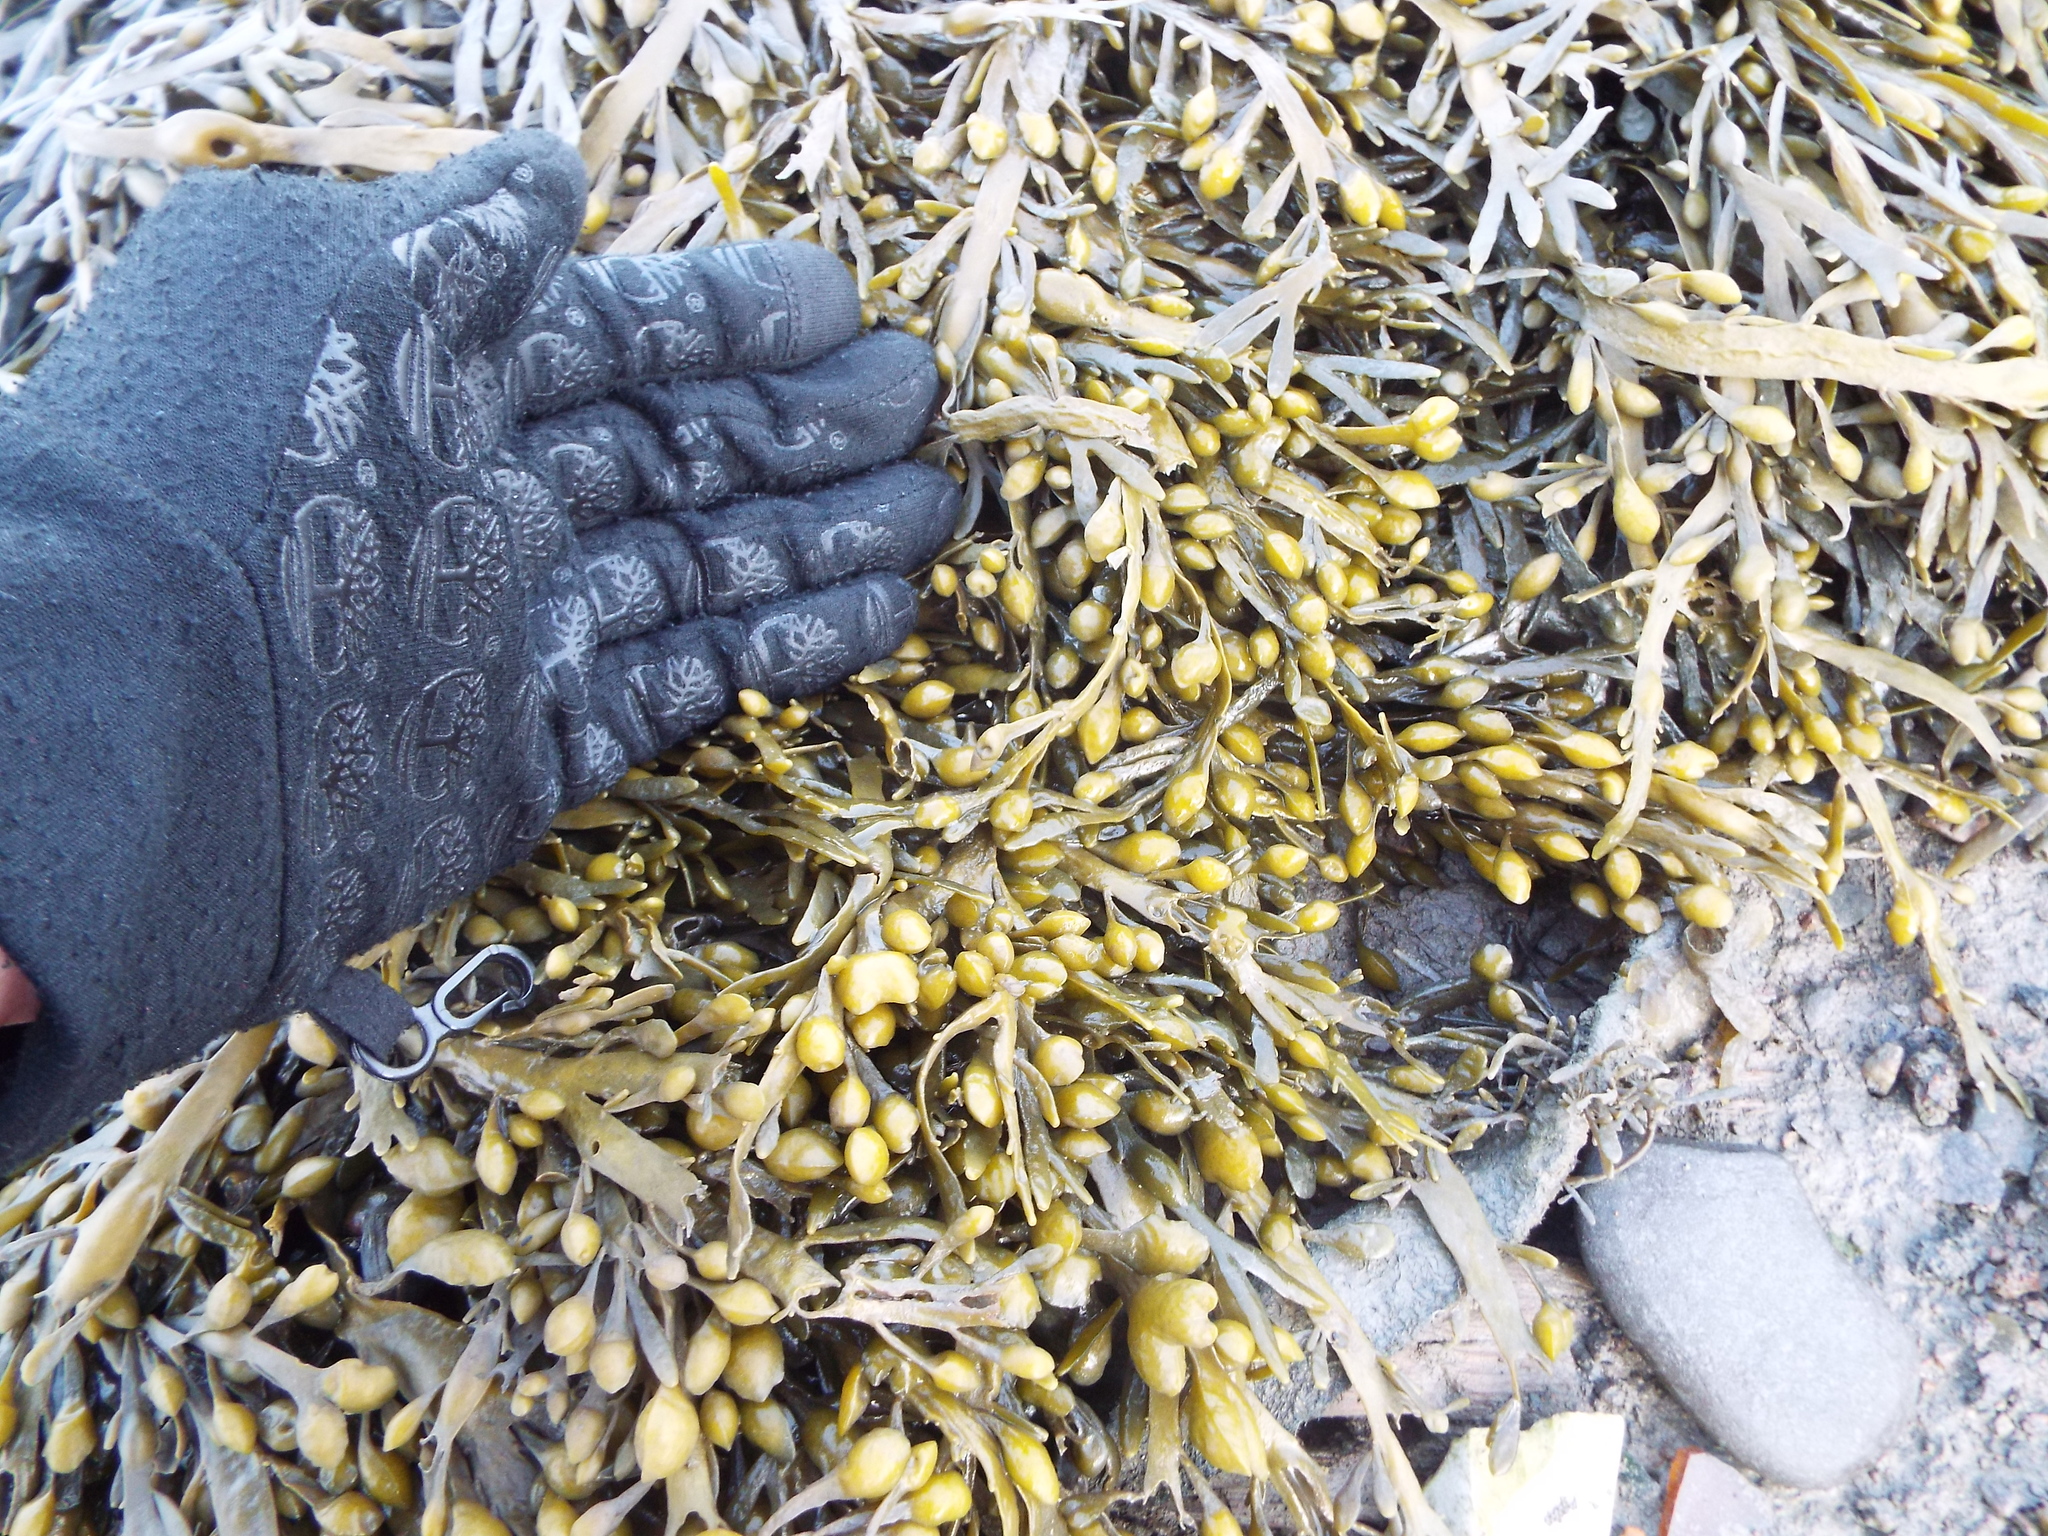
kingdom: Chromista
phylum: Ochrophyta
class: Phaeophyceae
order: Fucales
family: Fucaceae
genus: Ascophyllum
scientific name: Ascophyllum nodosum
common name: Knotted wrack
